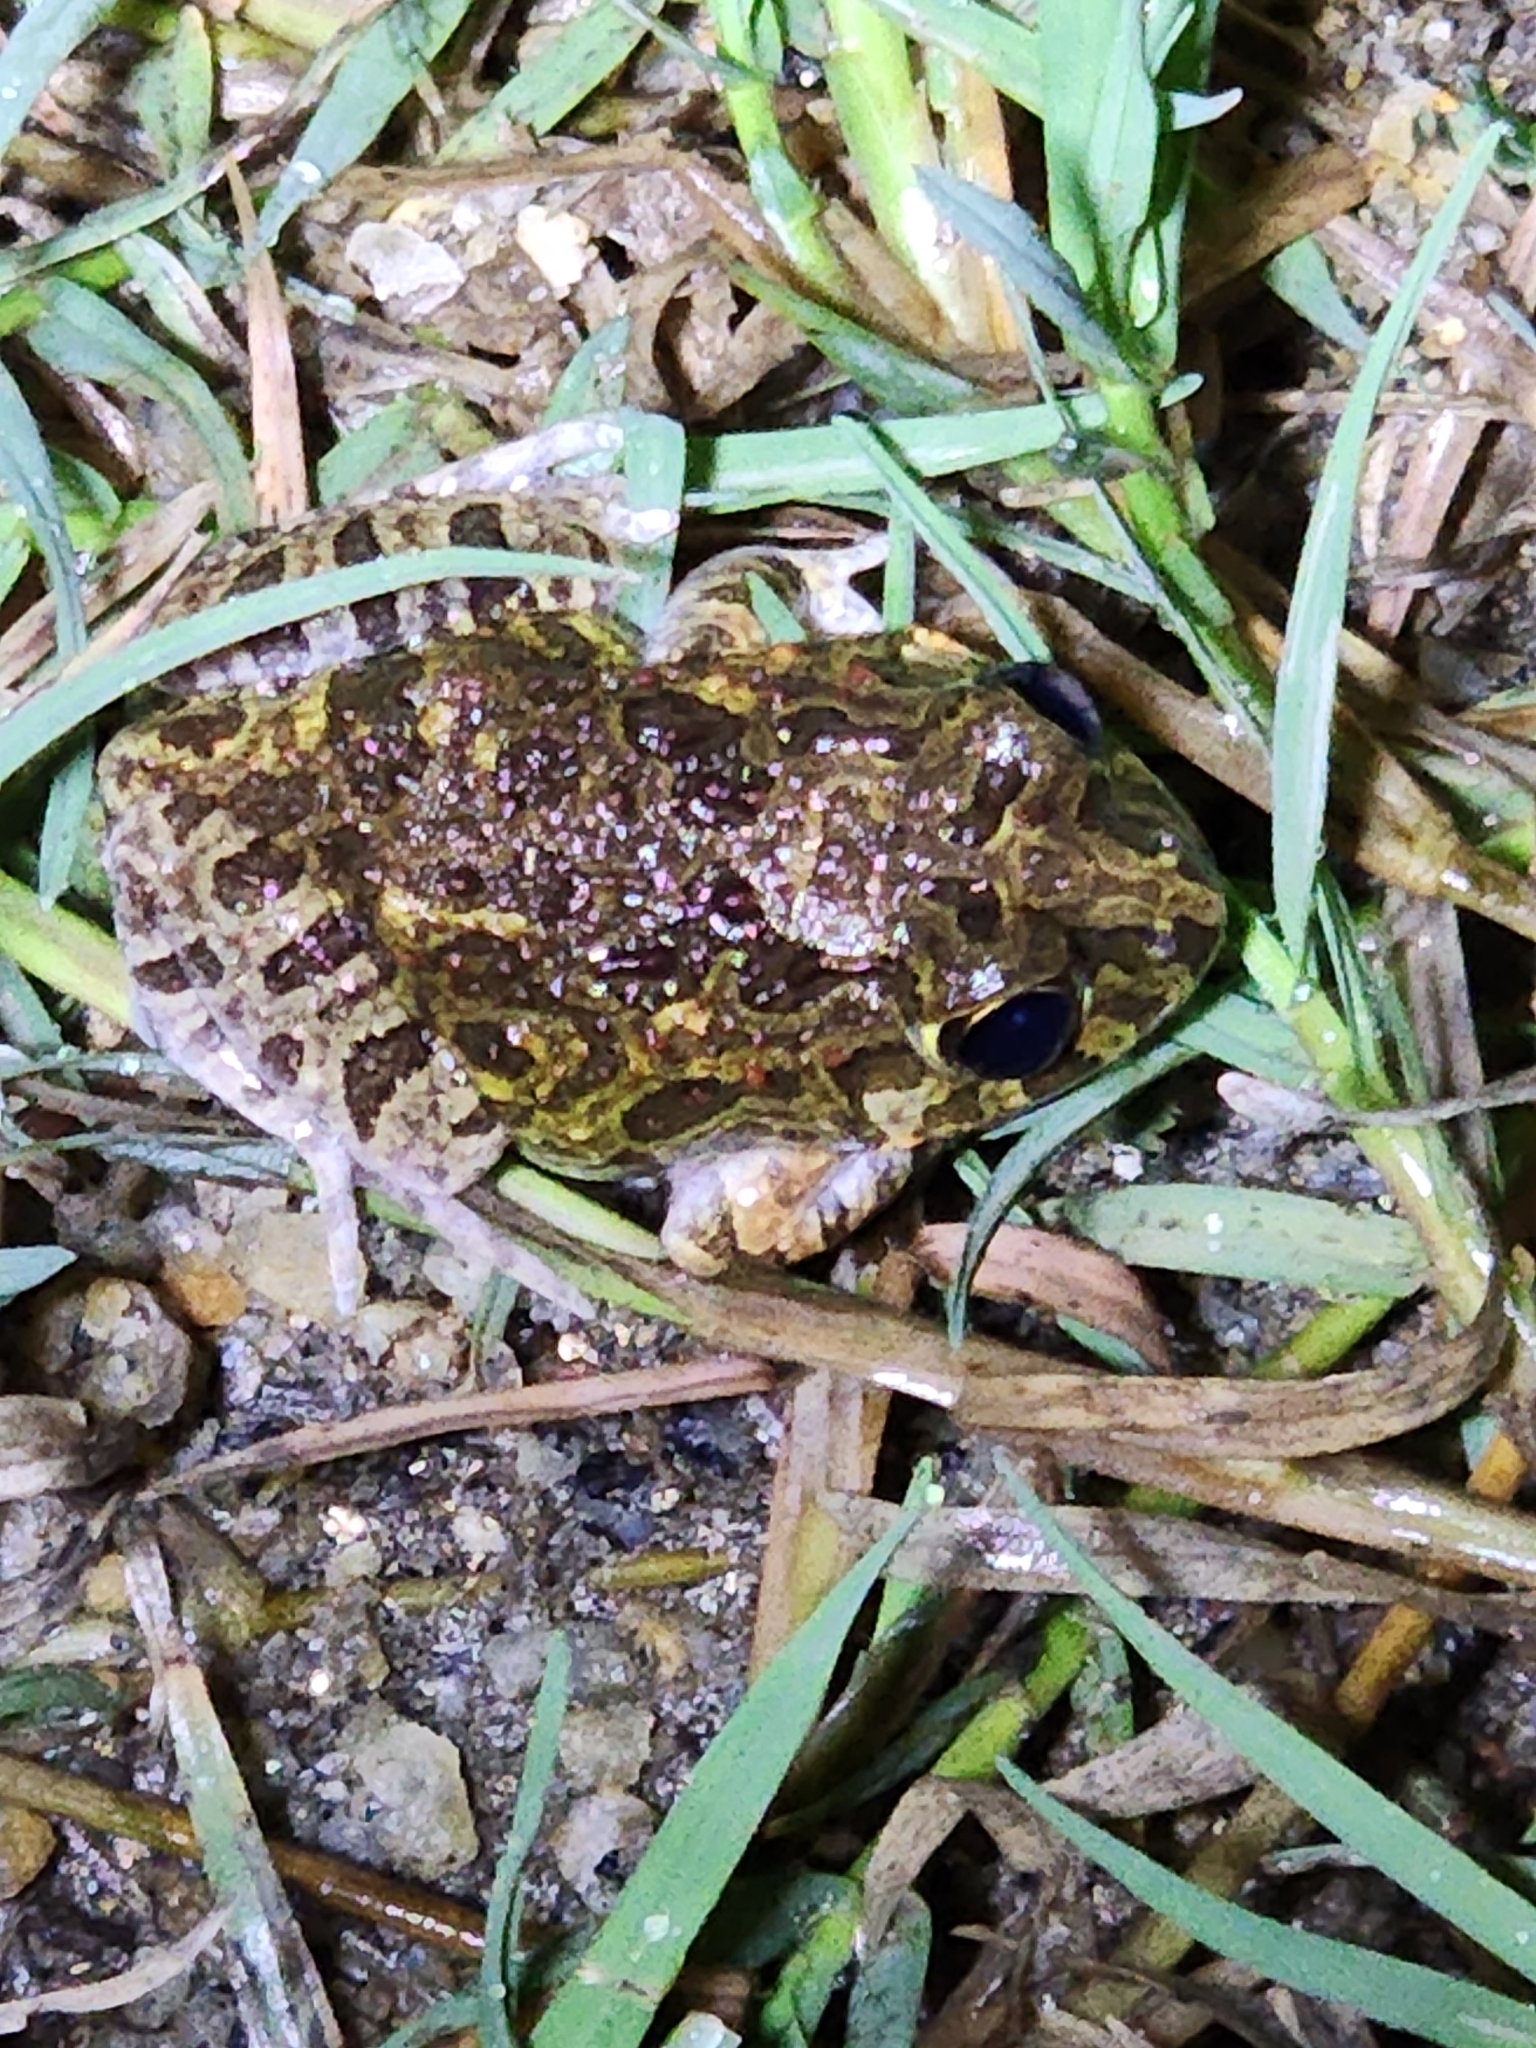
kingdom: Animalia
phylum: Chordata
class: Amphibia
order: Anura
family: Limnodynastidae
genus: Platyplectrum
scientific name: Platyplectrum ornatum
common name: Ornate burrowing frog
